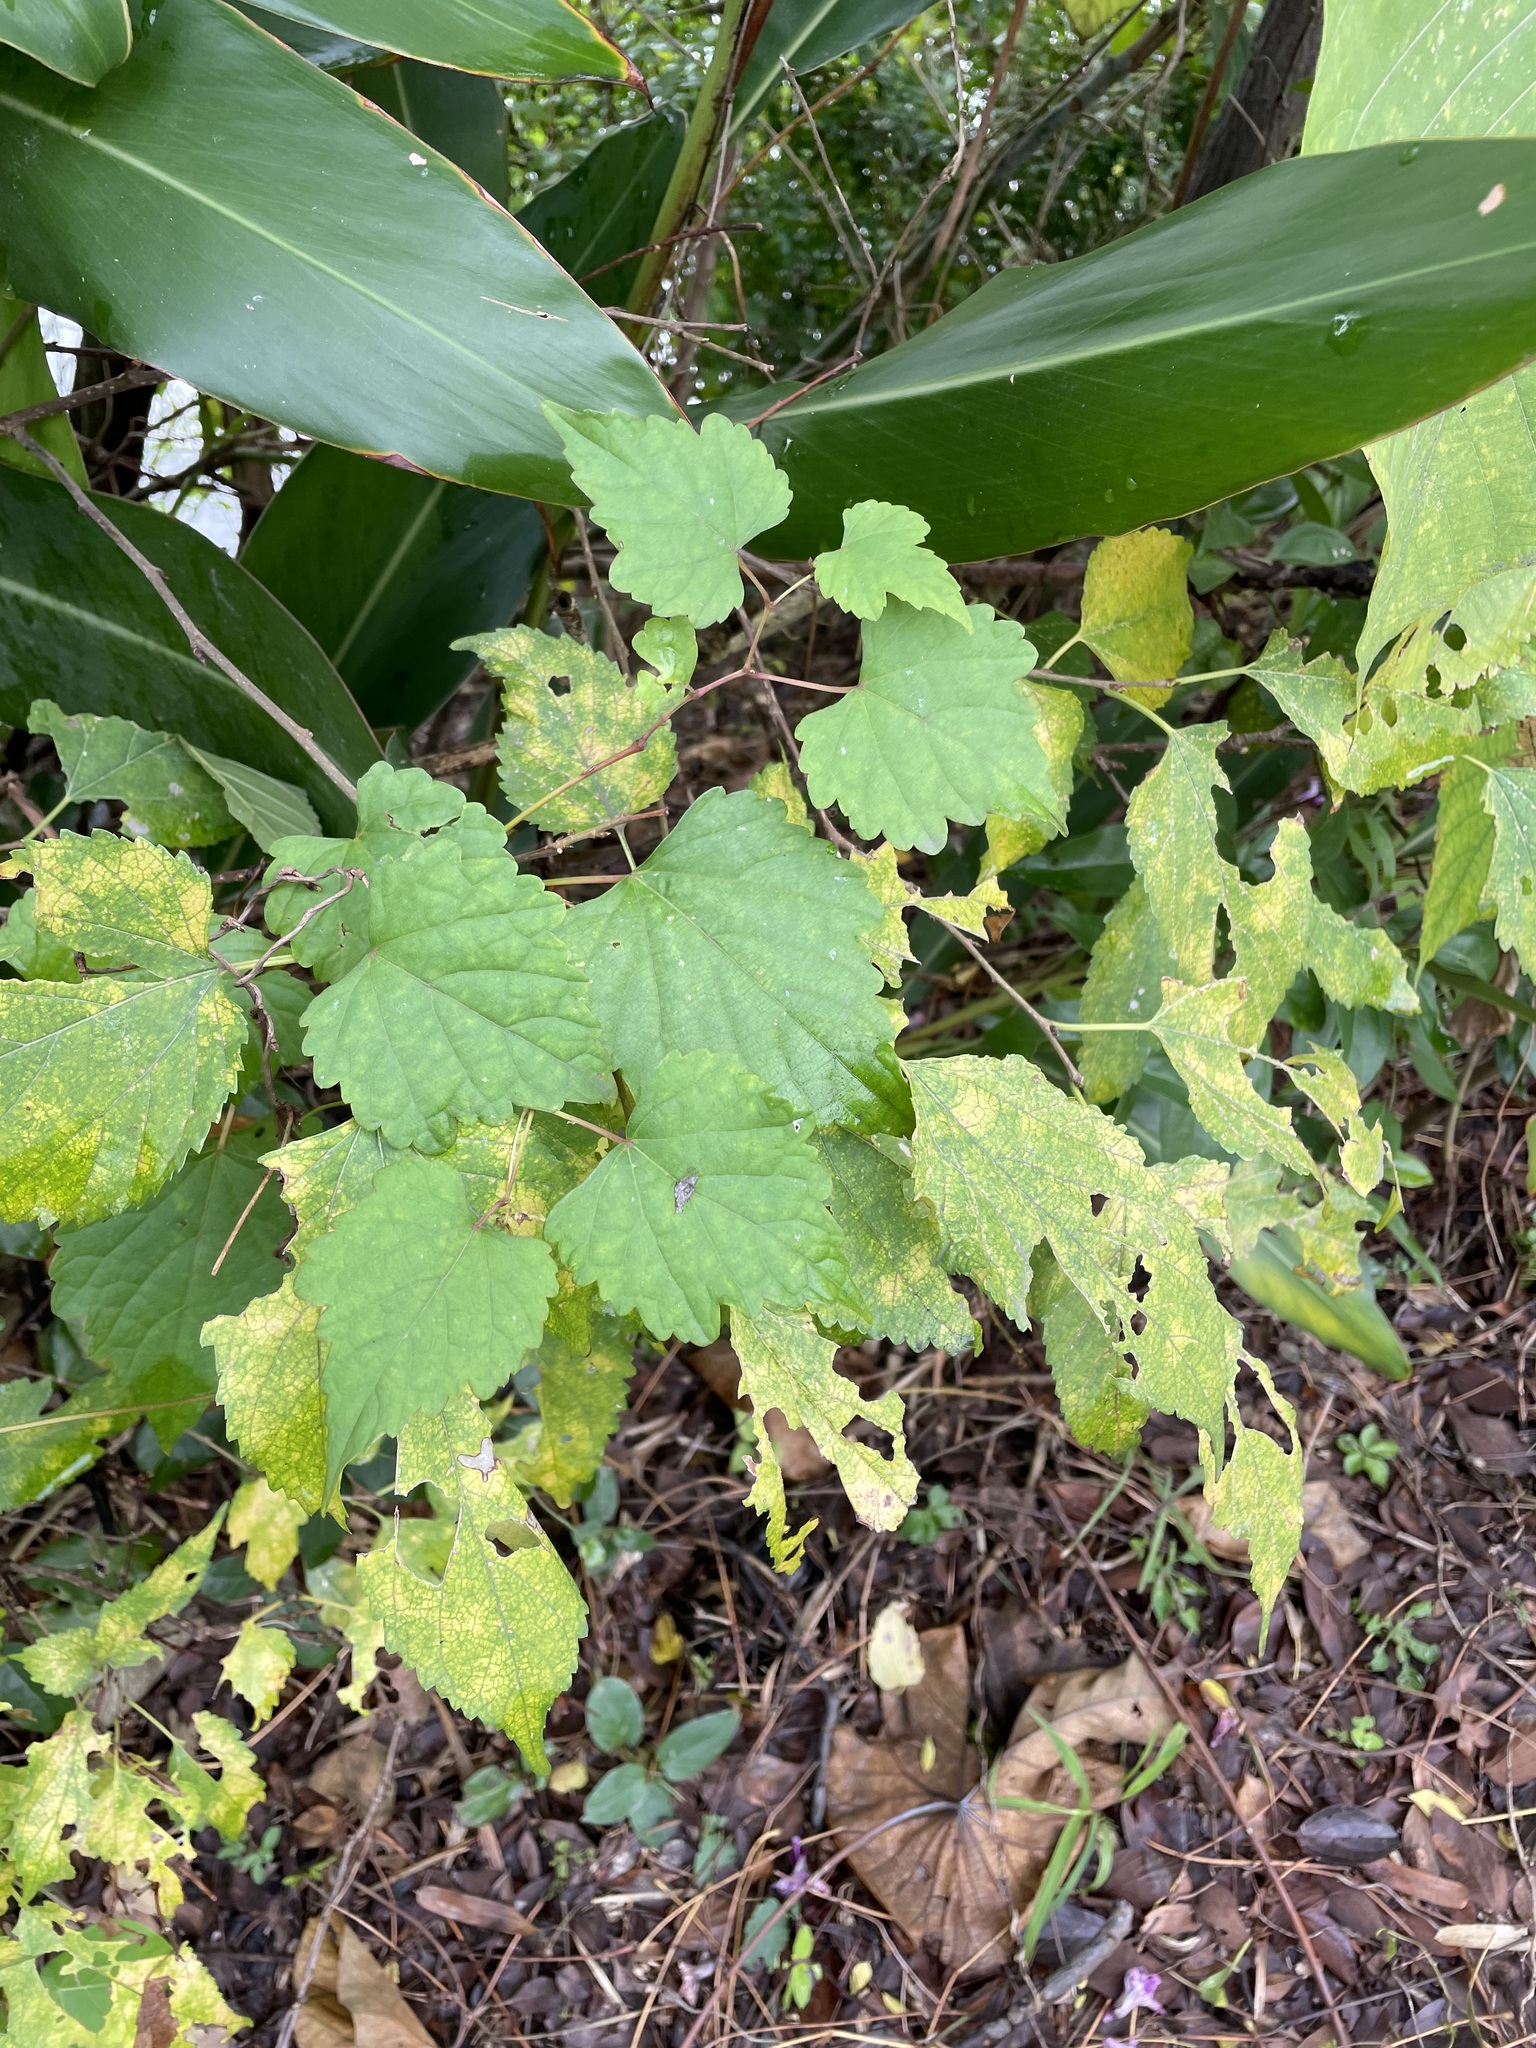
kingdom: Plantae
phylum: Tracheophyta
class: Magnoliopsida
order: Vitales
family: Vitaceae
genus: Ampelopsis
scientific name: Ampelopsis glandulosa
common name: Amur peppervine
